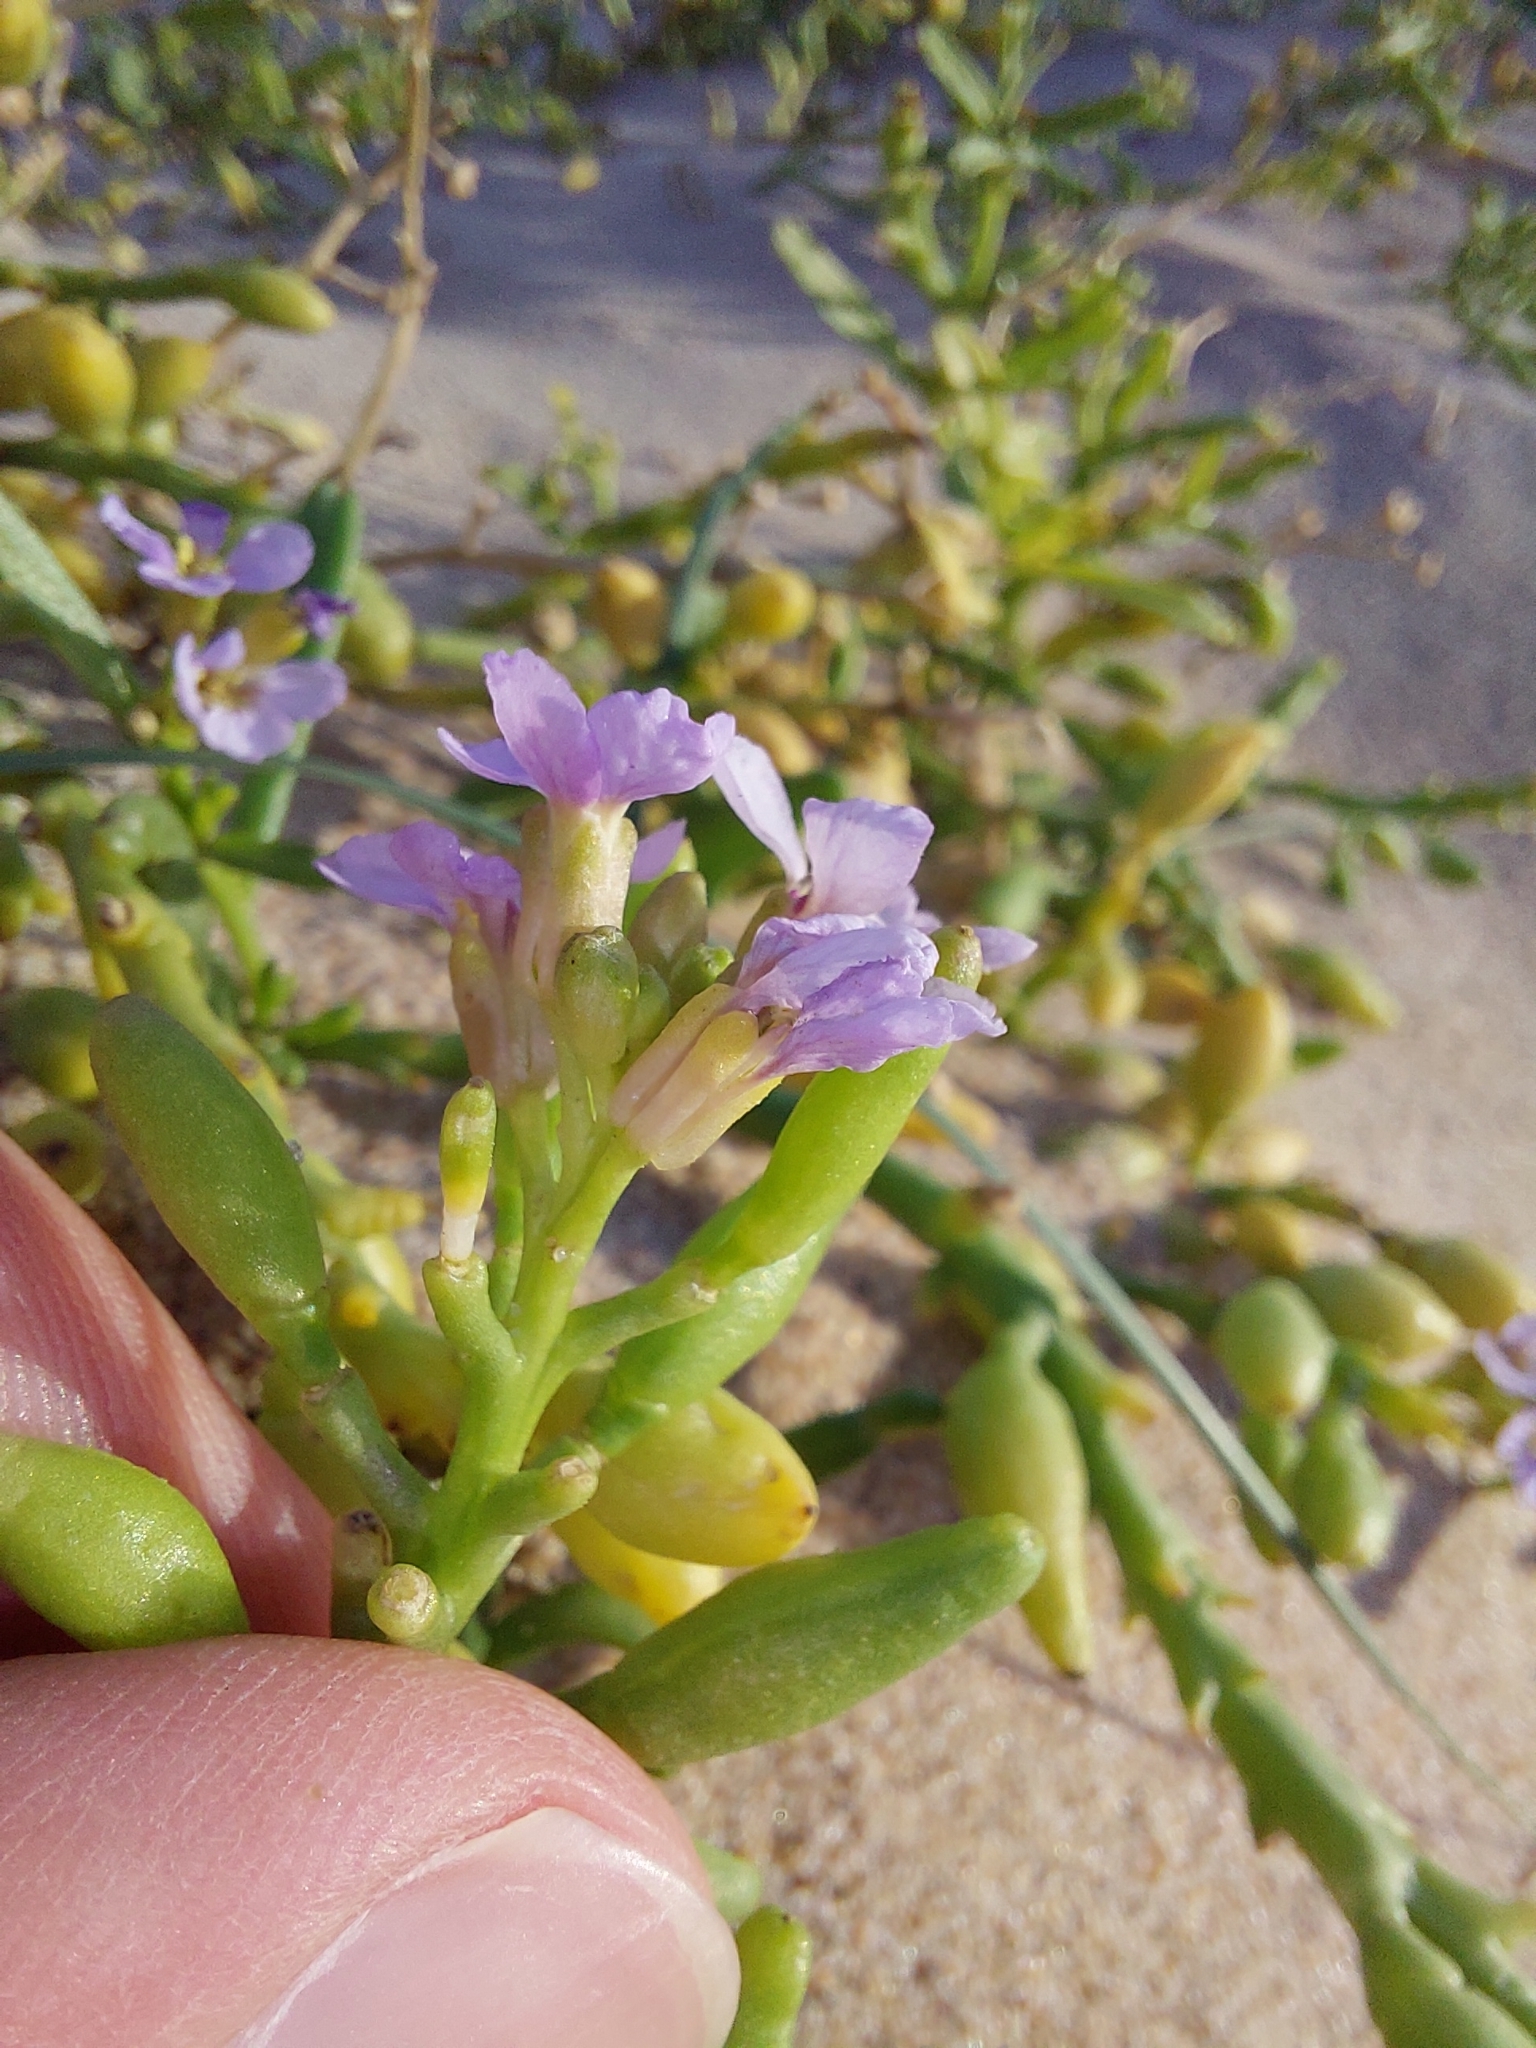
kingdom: Plantae
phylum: Tracheophyta
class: Magnoliopsida
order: Brassicales
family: Brassicaceae
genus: Cakile
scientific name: Cakile maritima
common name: Sea rocket
